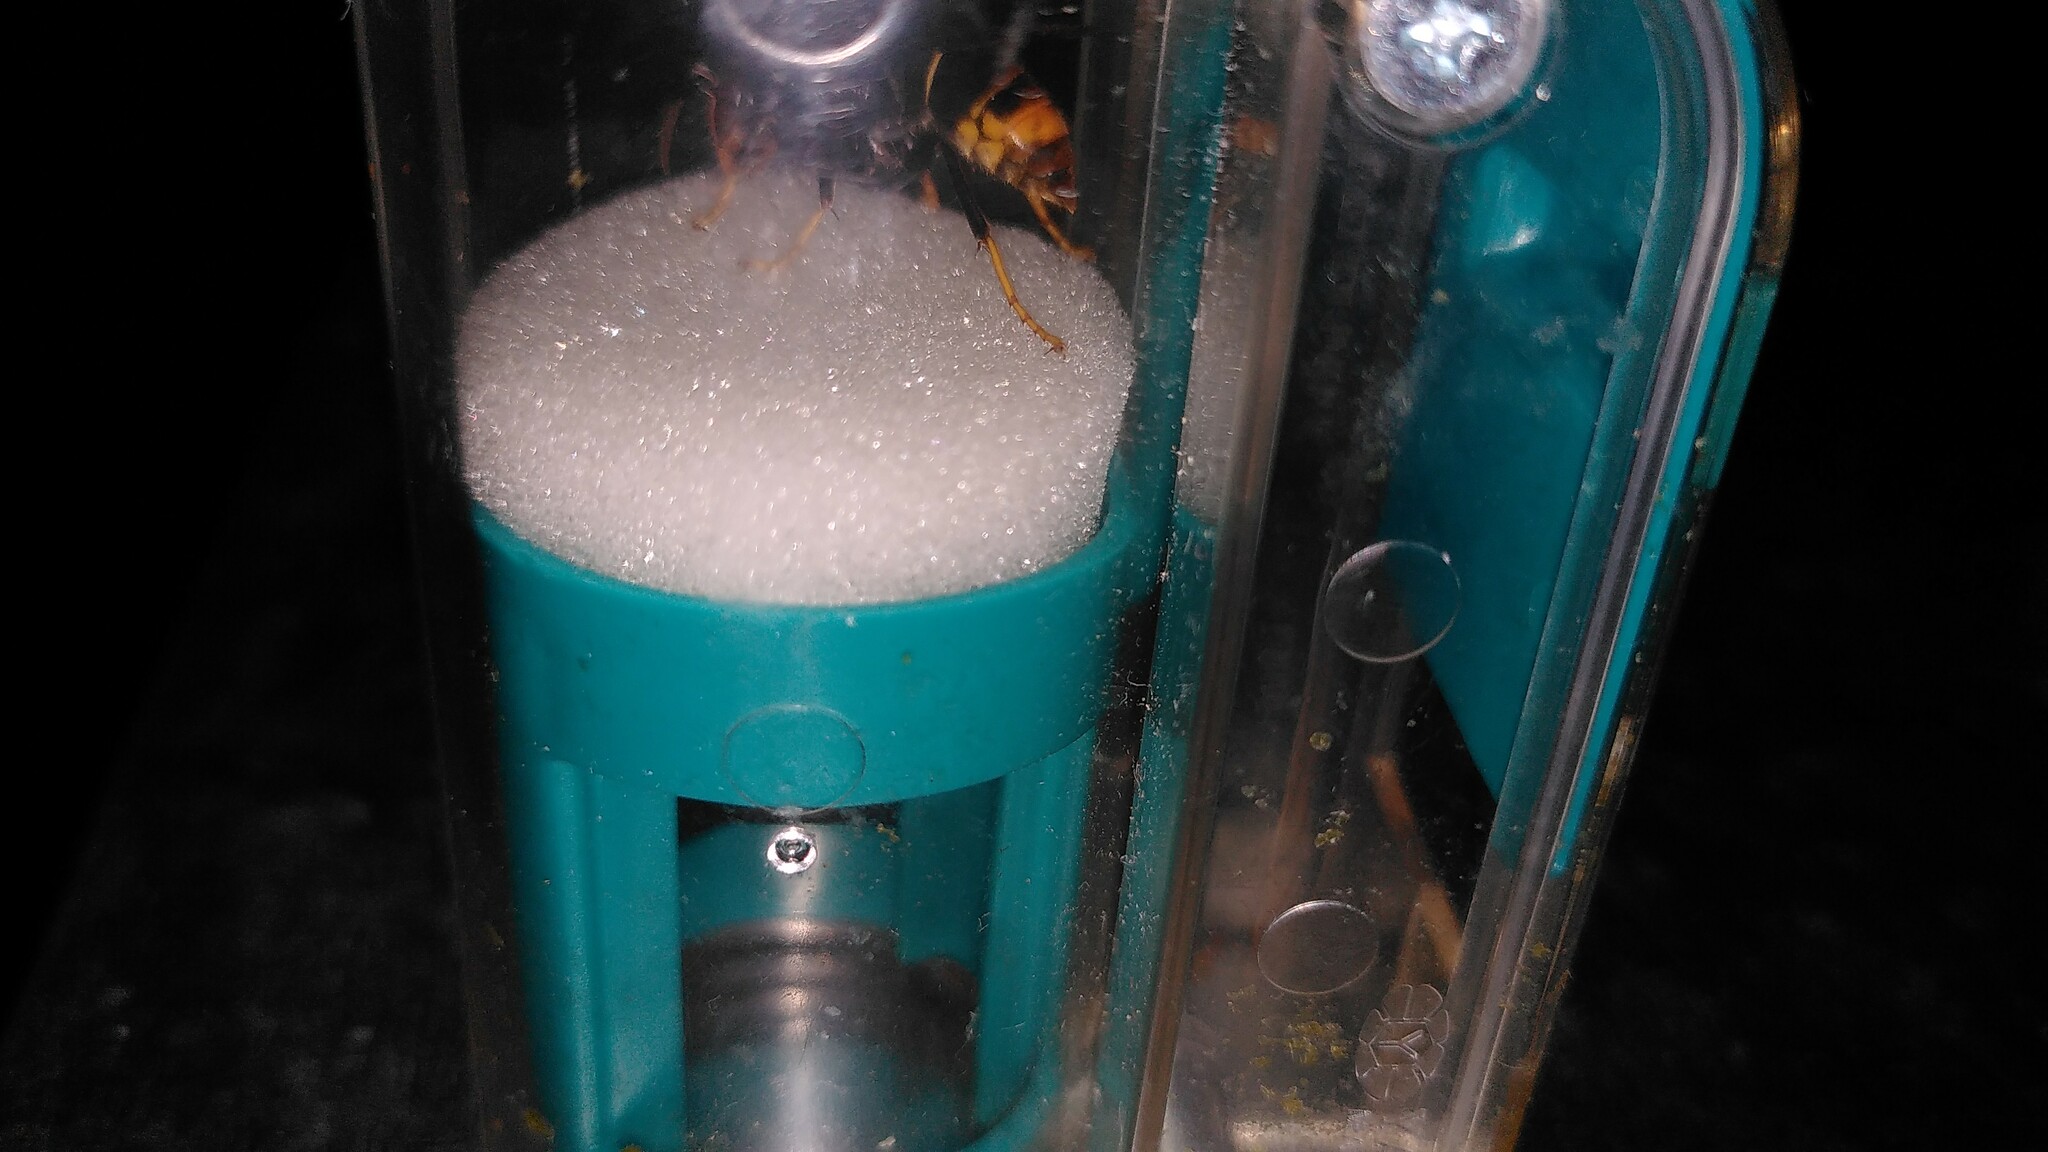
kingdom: Animalia
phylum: Arthropoda
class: Insecta
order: Hymenoptera
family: Vespidae
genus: Vespa
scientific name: Vespa velutina
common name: Asian hornet
